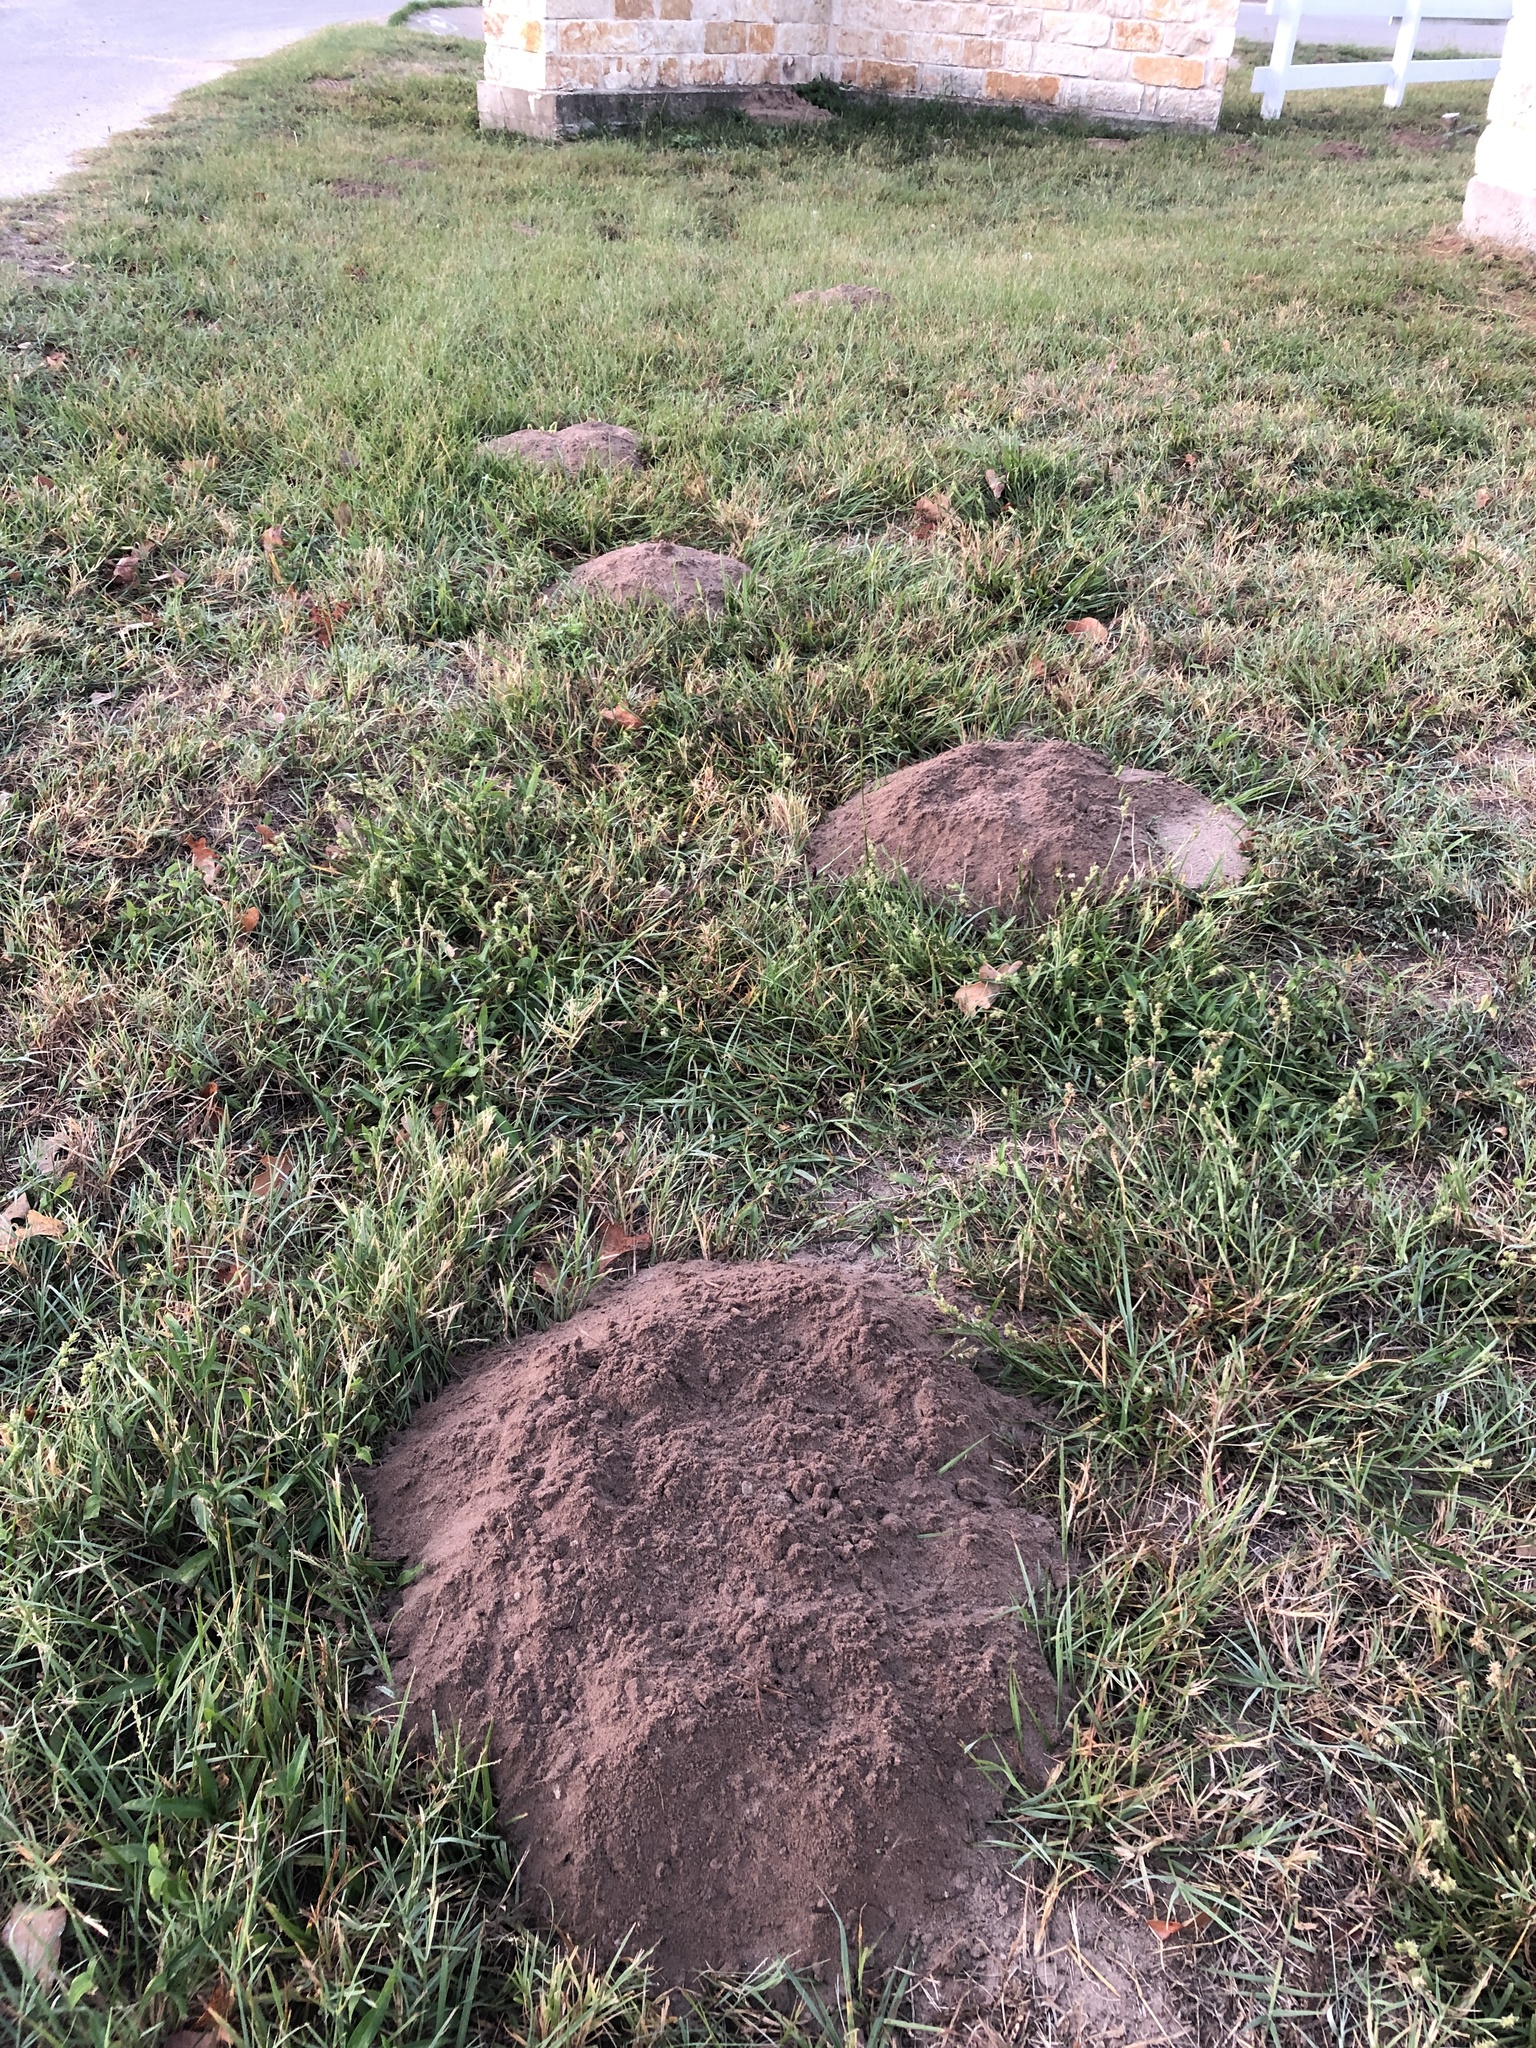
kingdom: Animalia
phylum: Chordata
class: Mammalia
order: Rodentia
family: Geomyidae
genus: Geomys
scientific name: Geomys attwateri
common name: Attwater's pocket gopher
